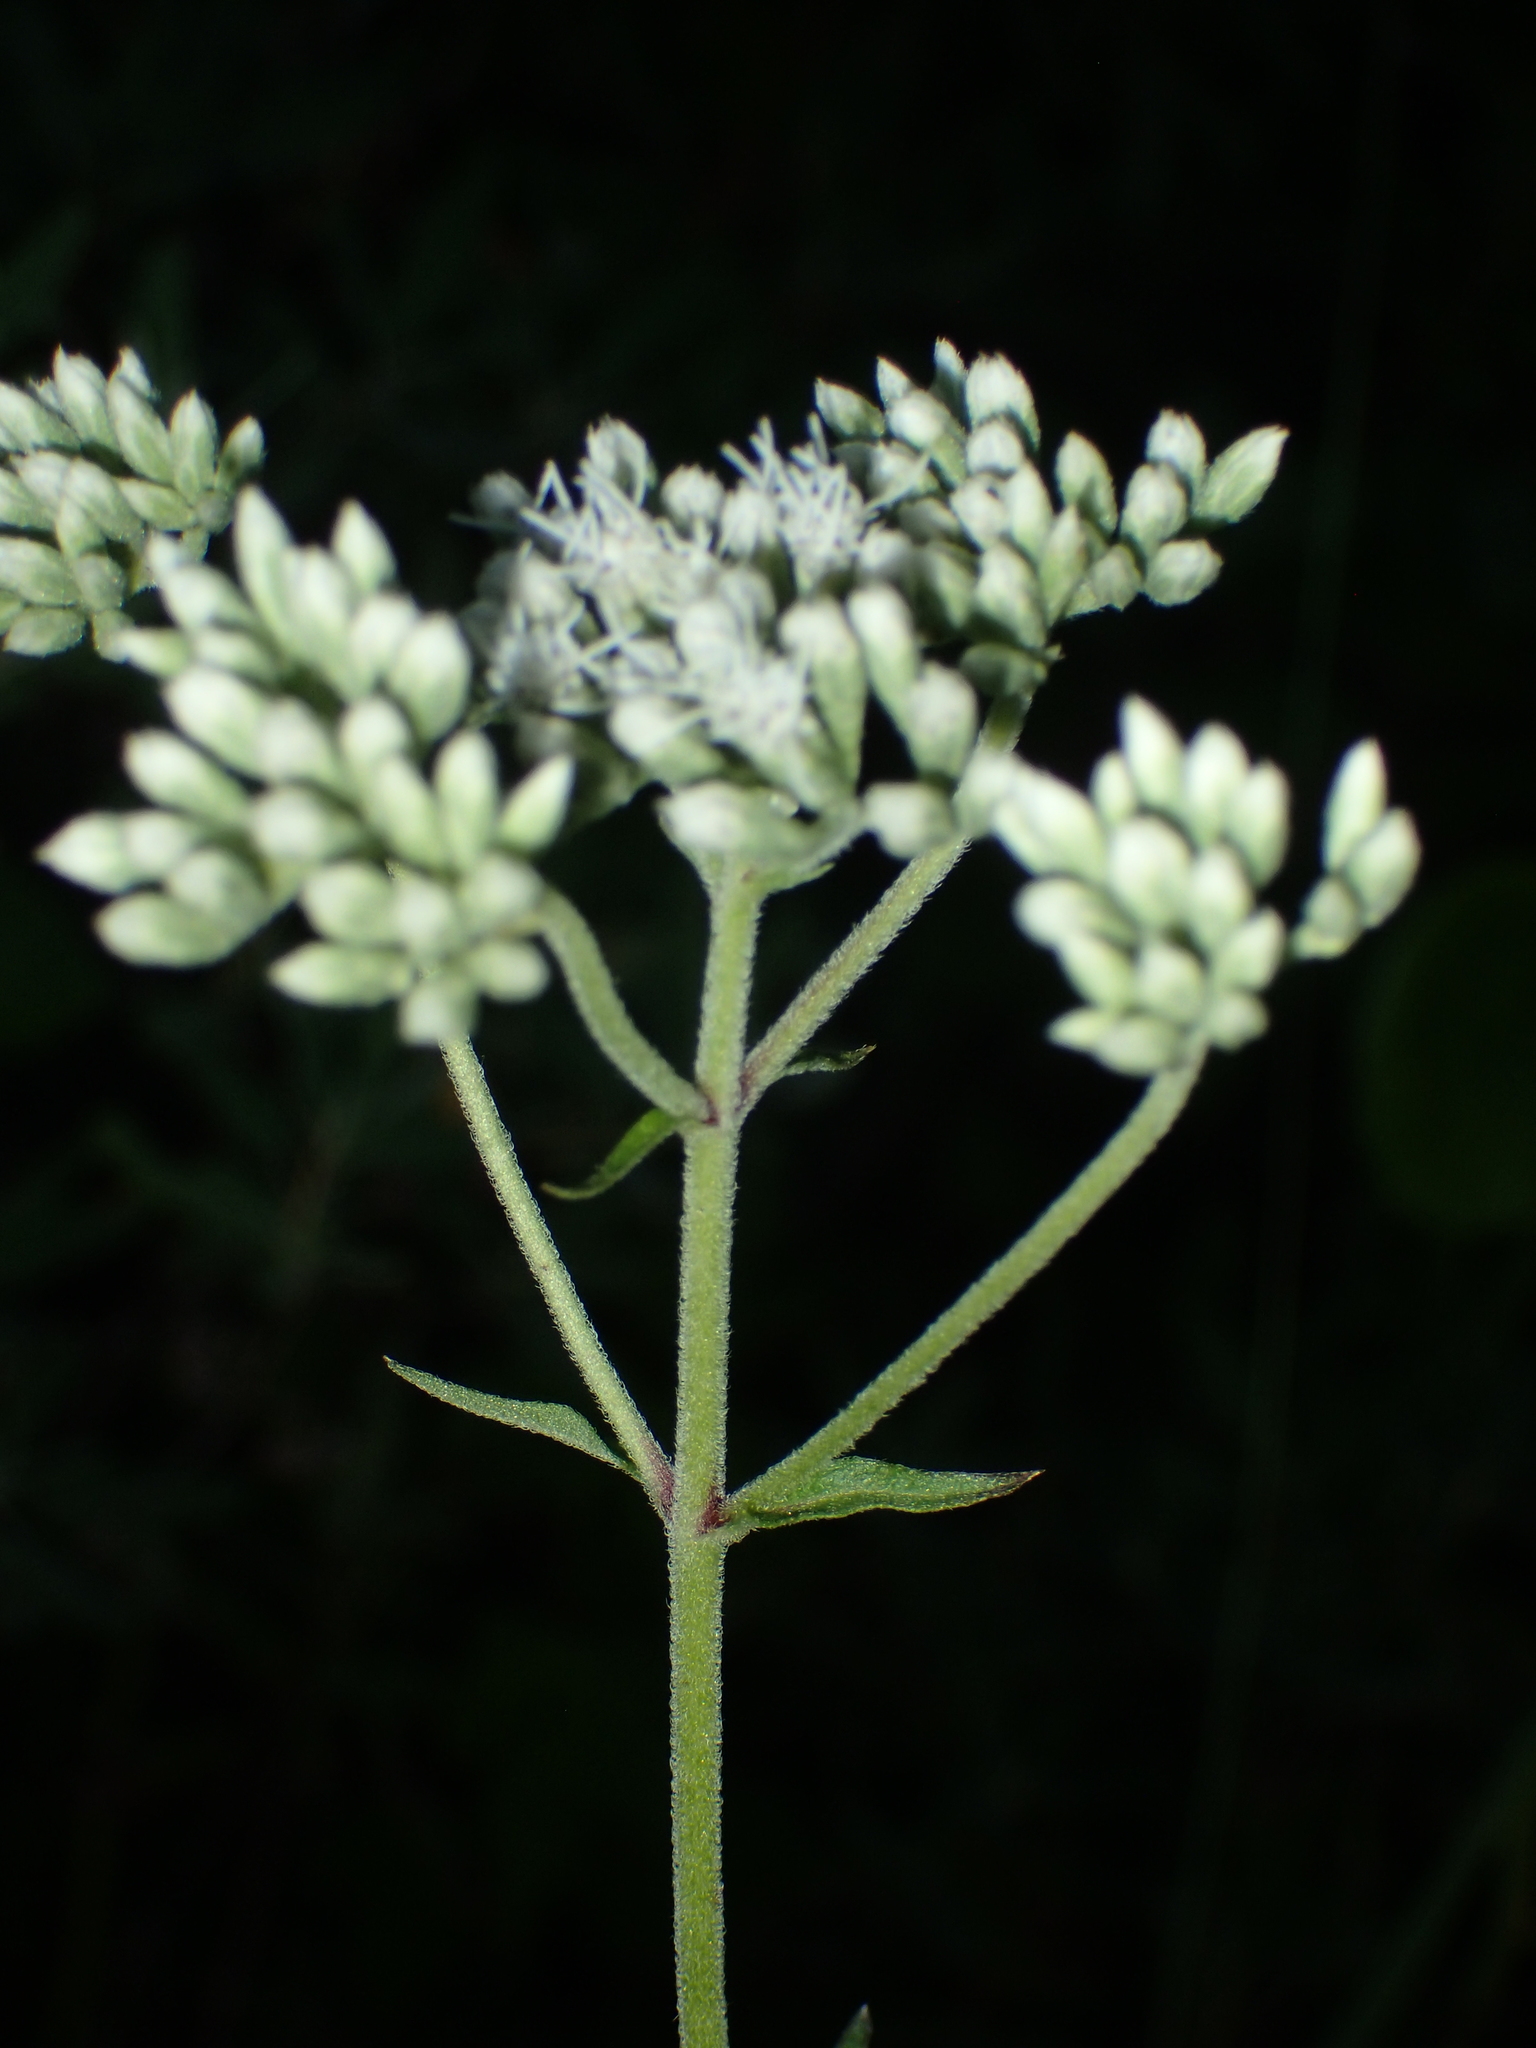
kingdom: Plantae
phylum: Tracheophyta
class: Magnoliopsida
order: Asterales
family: Asteraceae
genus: Eupatorium
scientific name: Eupatorium pilosum
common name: Rough boneset
